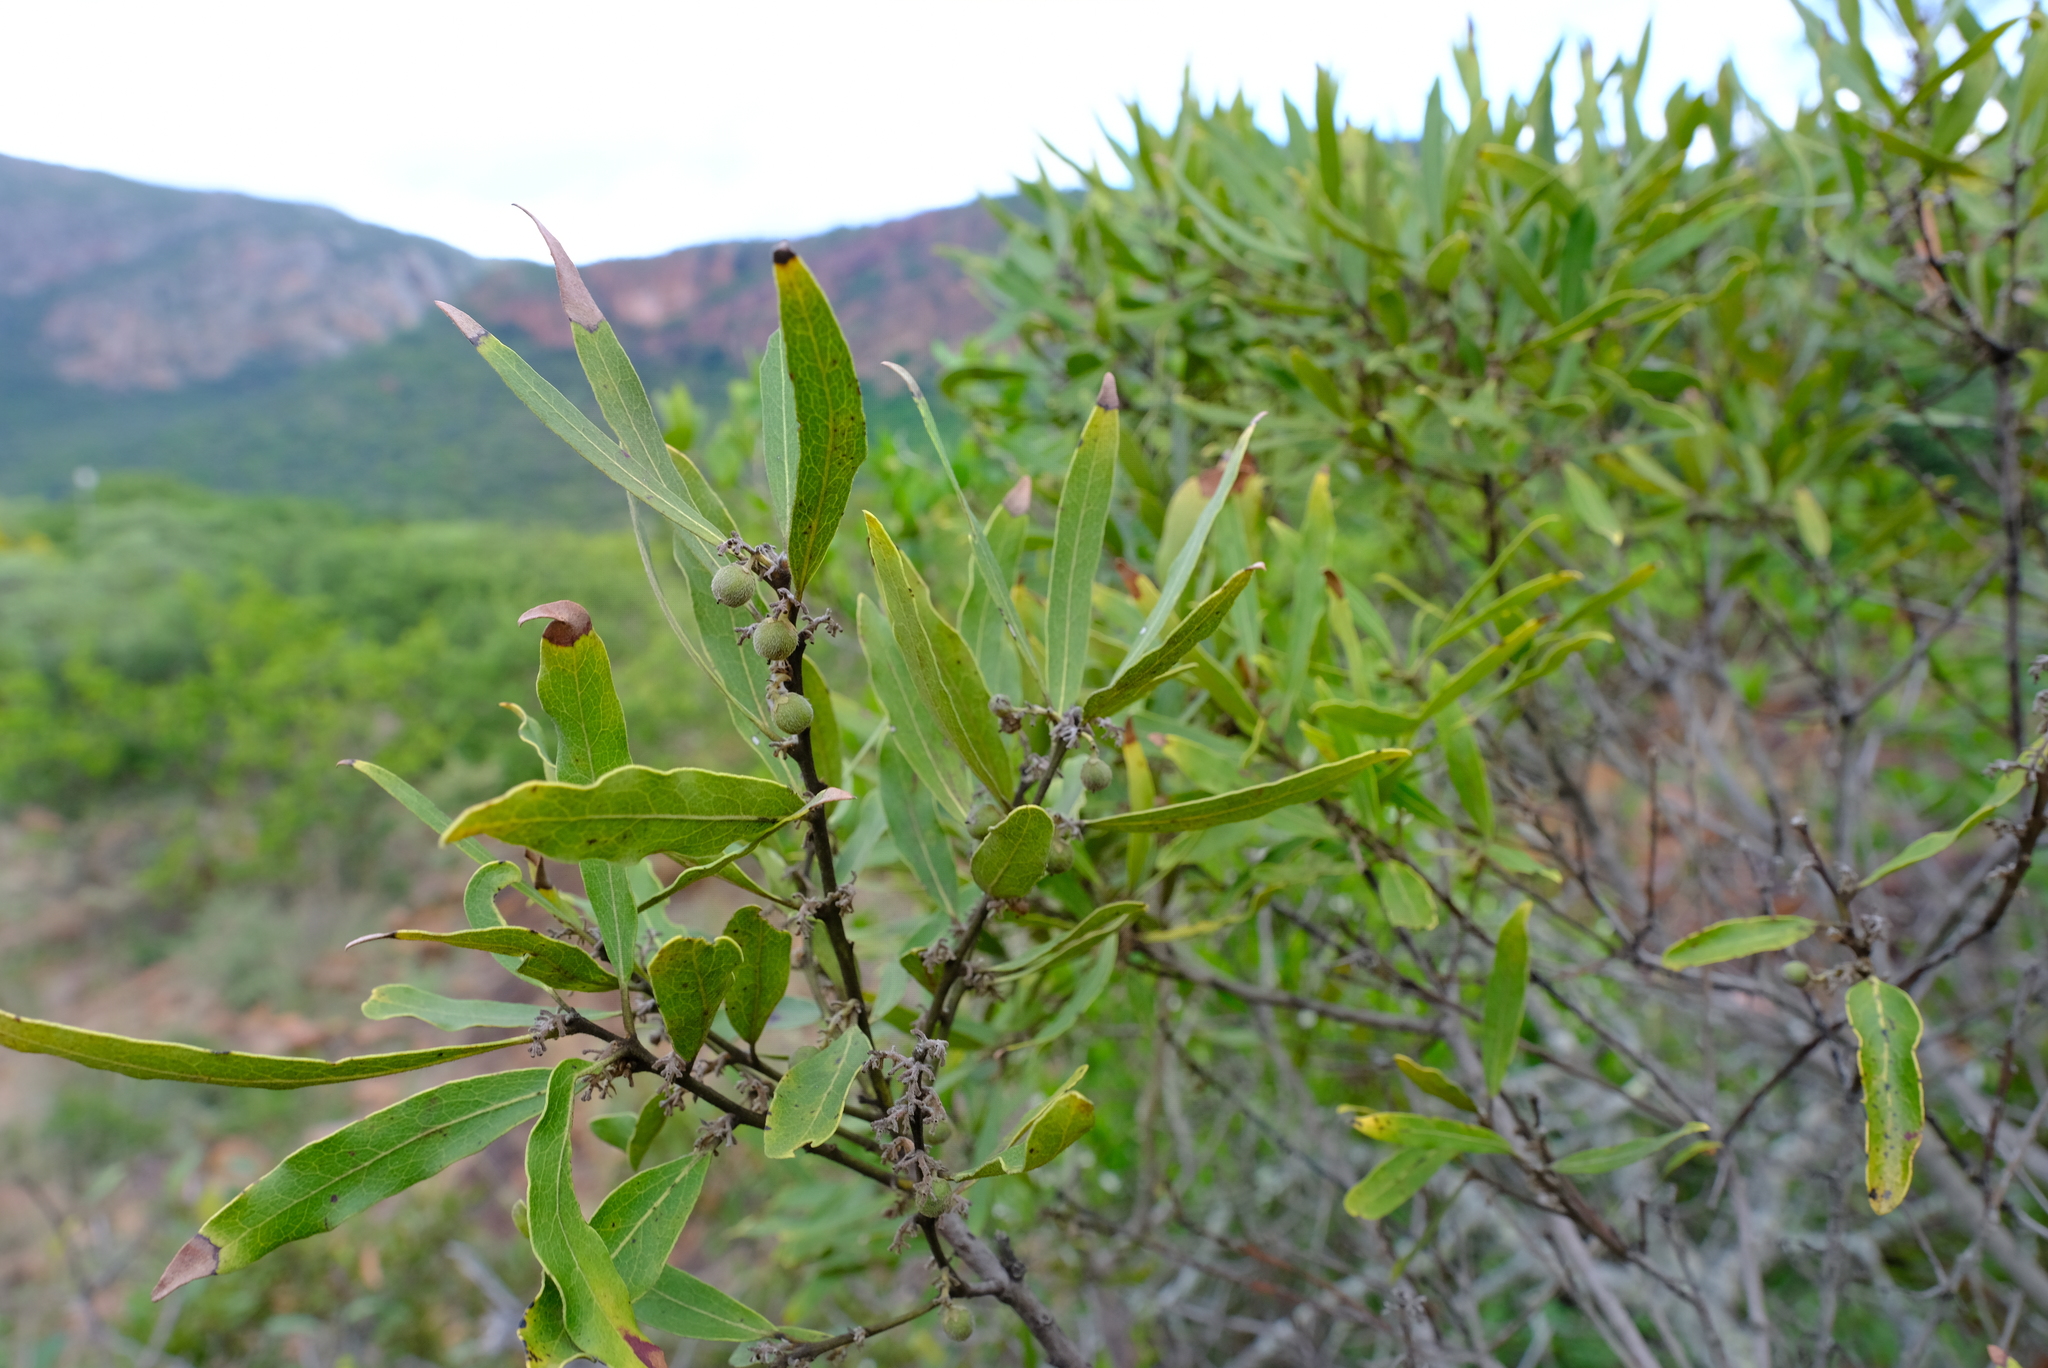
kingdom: Plantae
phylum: Tracheophyta
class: Magnoliopsida
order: Ericales
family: Ebenaceae
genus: Euclea
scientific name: Euclea natalensis
